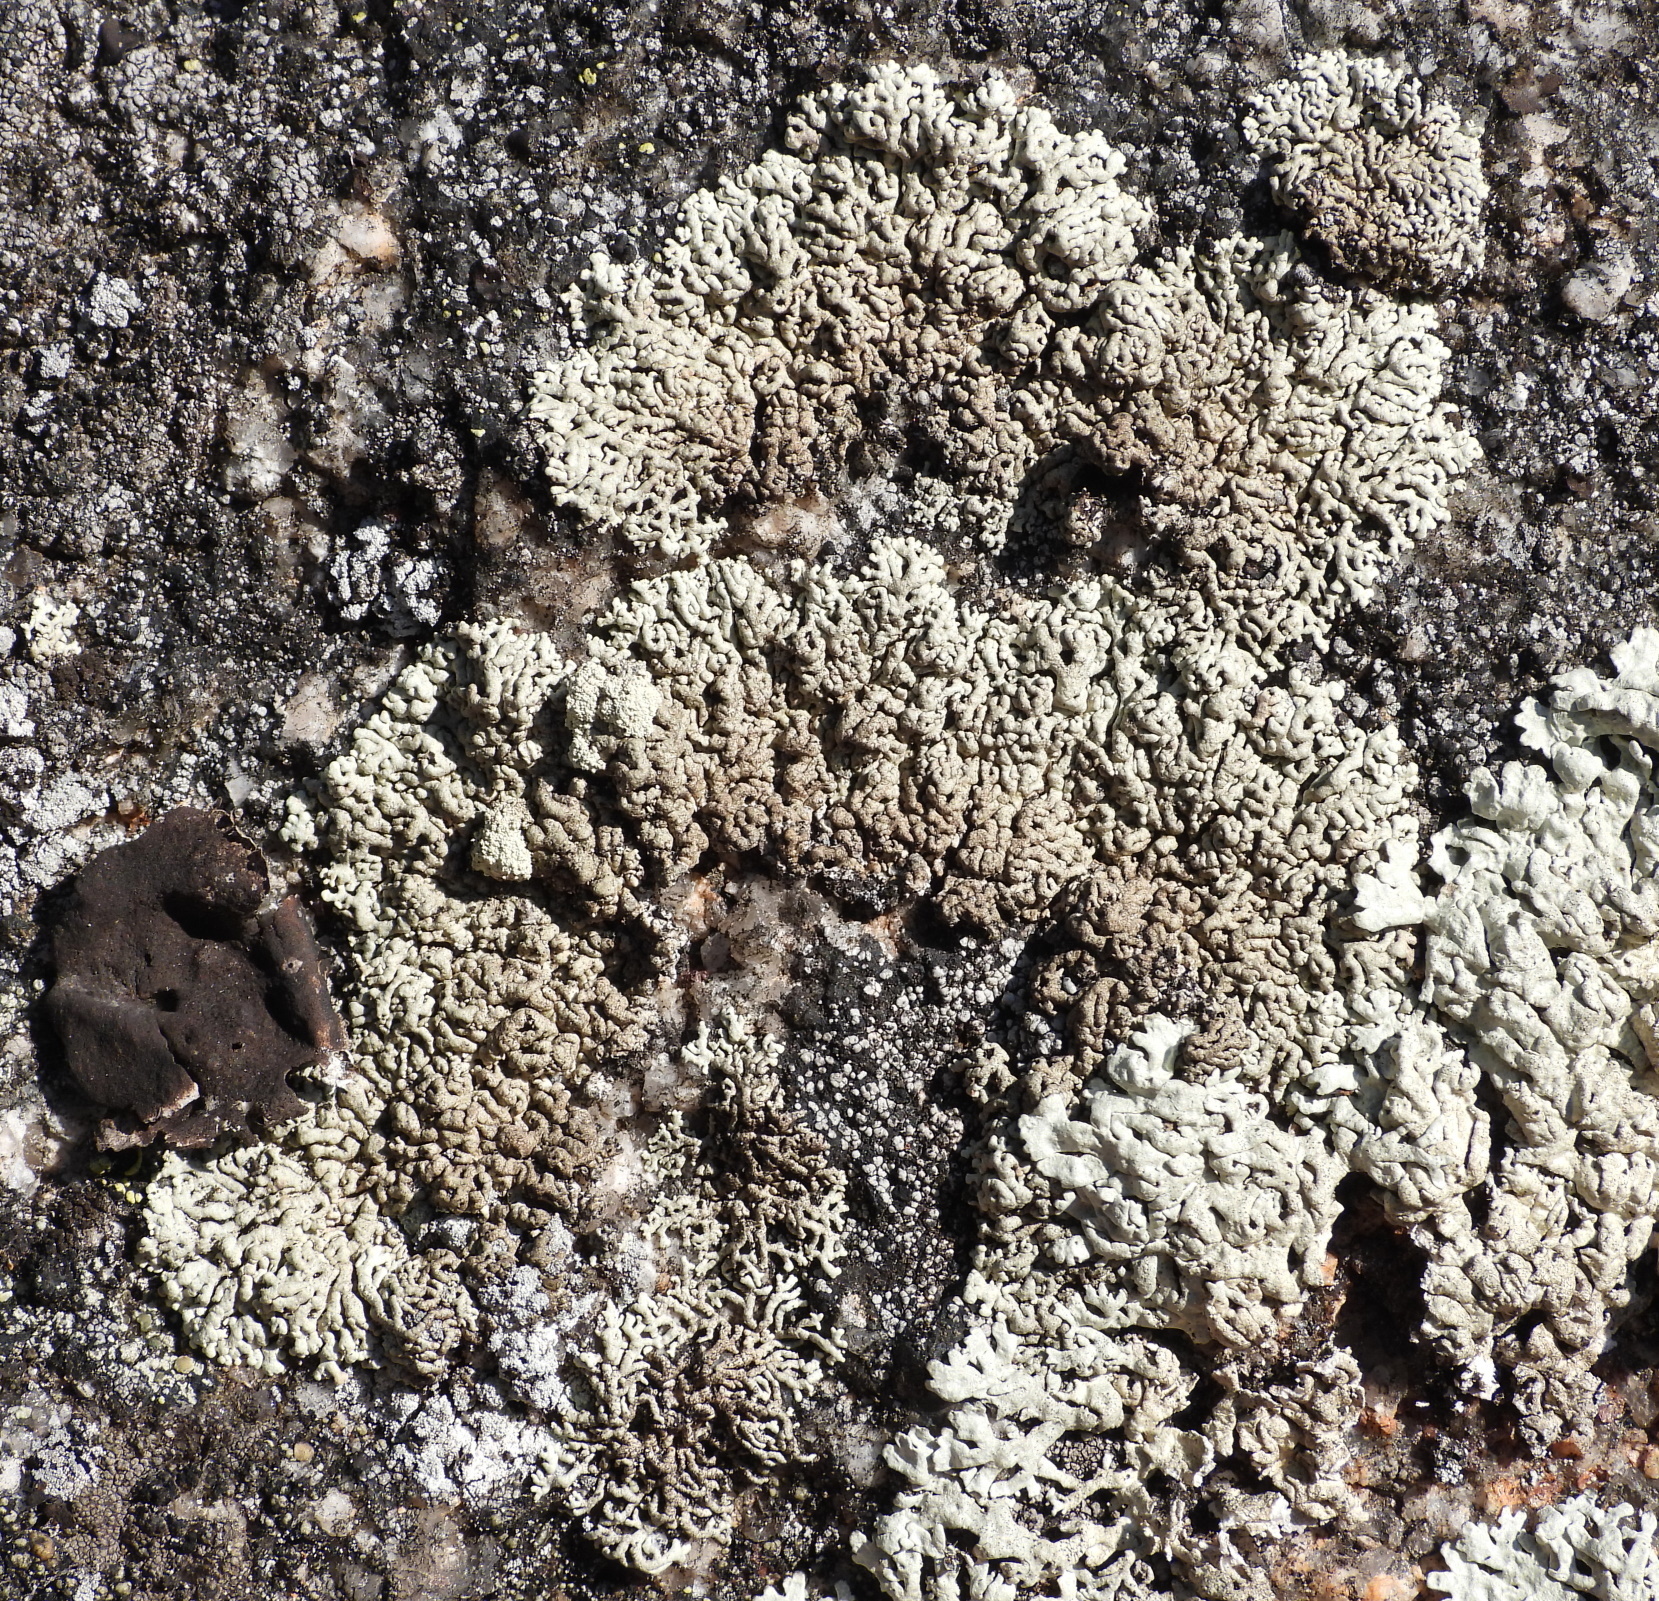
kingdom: Fungi
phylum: Ascomycota
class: Lecanoromycetes
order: Lecanorales
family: Parmeliaceae
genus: Arctoparmelia
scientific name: Arctoparmelia incurva
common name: Bent ring lichen
